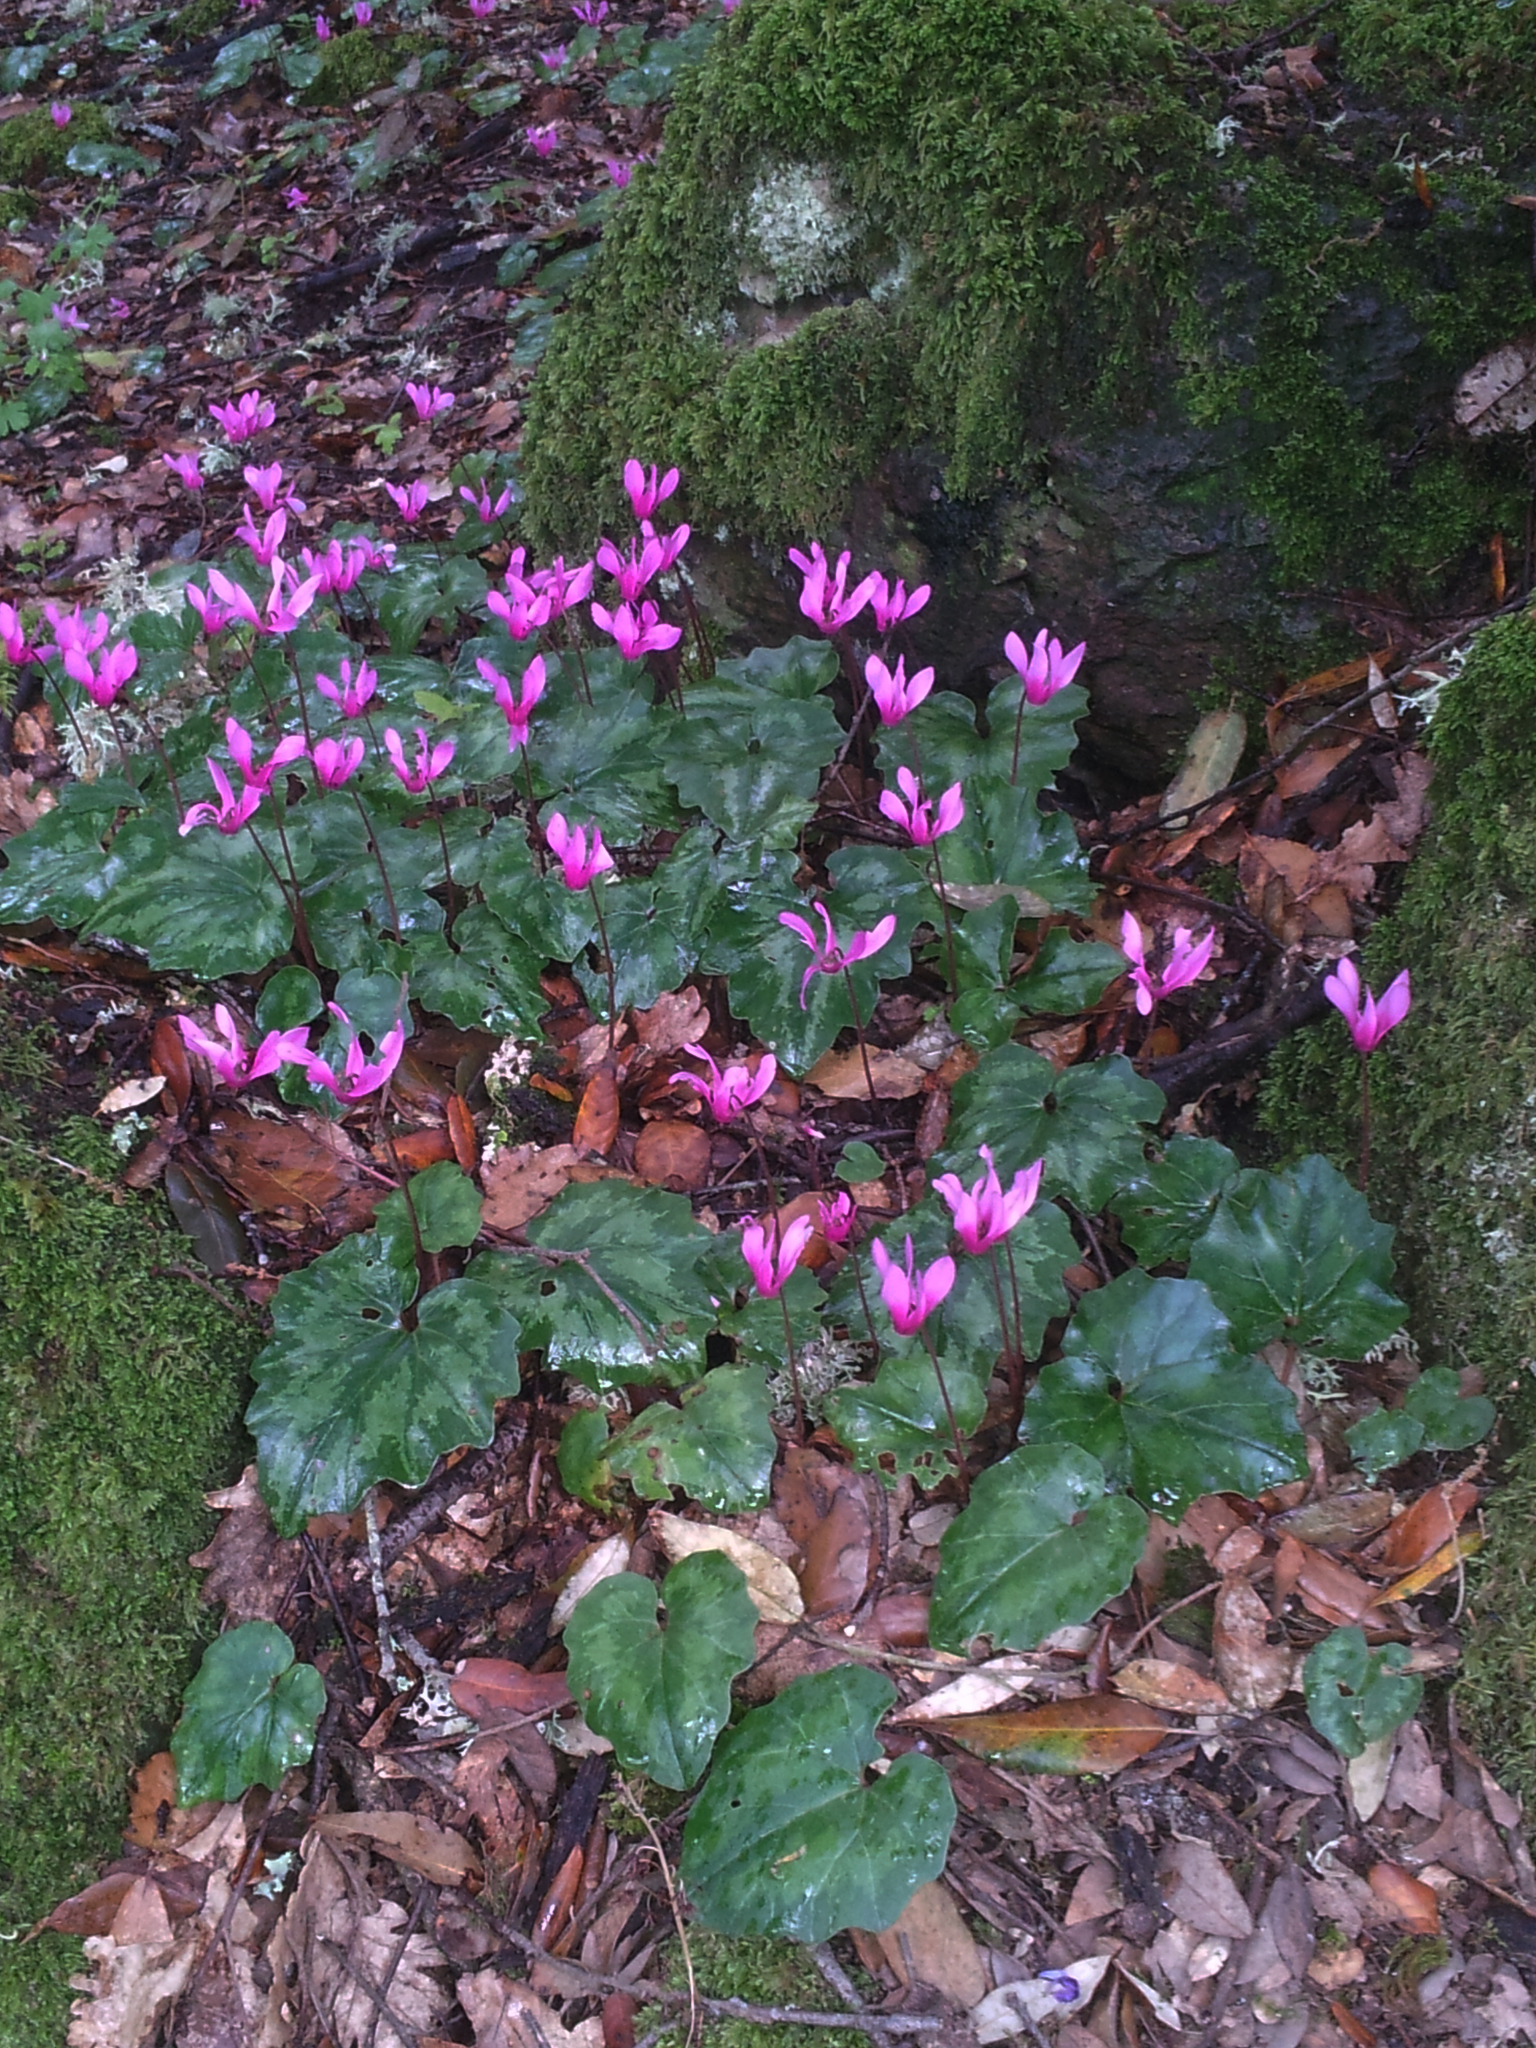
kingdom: Plantae
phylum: Tracheophyta
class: Magnoliopsida
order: Ericales
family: Primulaceae
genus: Cyclamen
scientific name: Cyclamen repandum
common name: Spring sowbread
